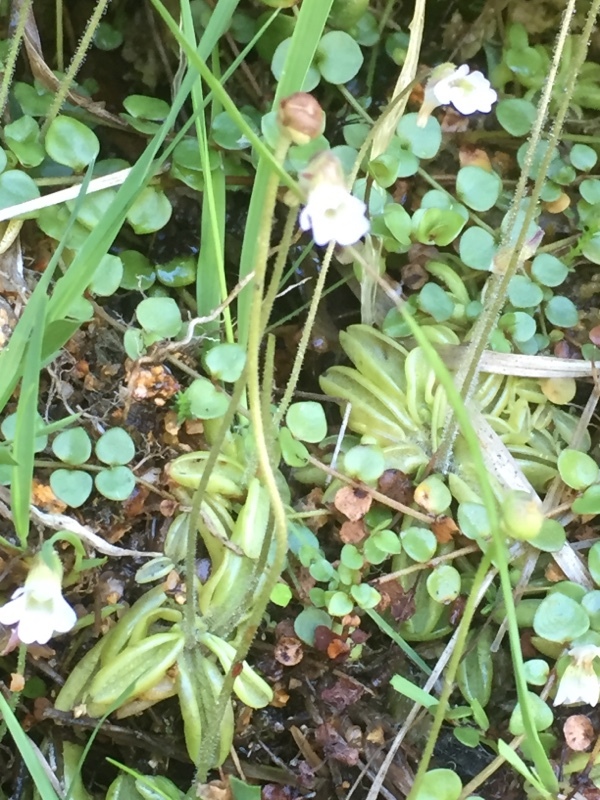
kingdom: Plantae
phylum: Tracheophyta
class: Magnoliopsida
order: Lamiales
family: Lentibulariaceae
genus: Pinguicula
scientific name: Pinguicula lusitanica
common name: Pale butterwort
